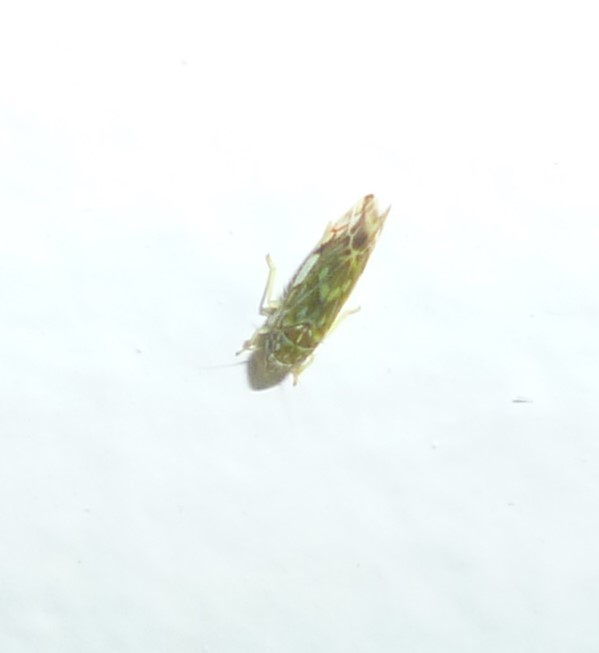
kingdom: Animalia
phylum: Arthropoda
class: Insecta
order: Hemiptera
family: Cicadellidae
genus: Erasmoneura
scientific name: Erasmoneura vulnerata
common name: The wounded leafhopper
